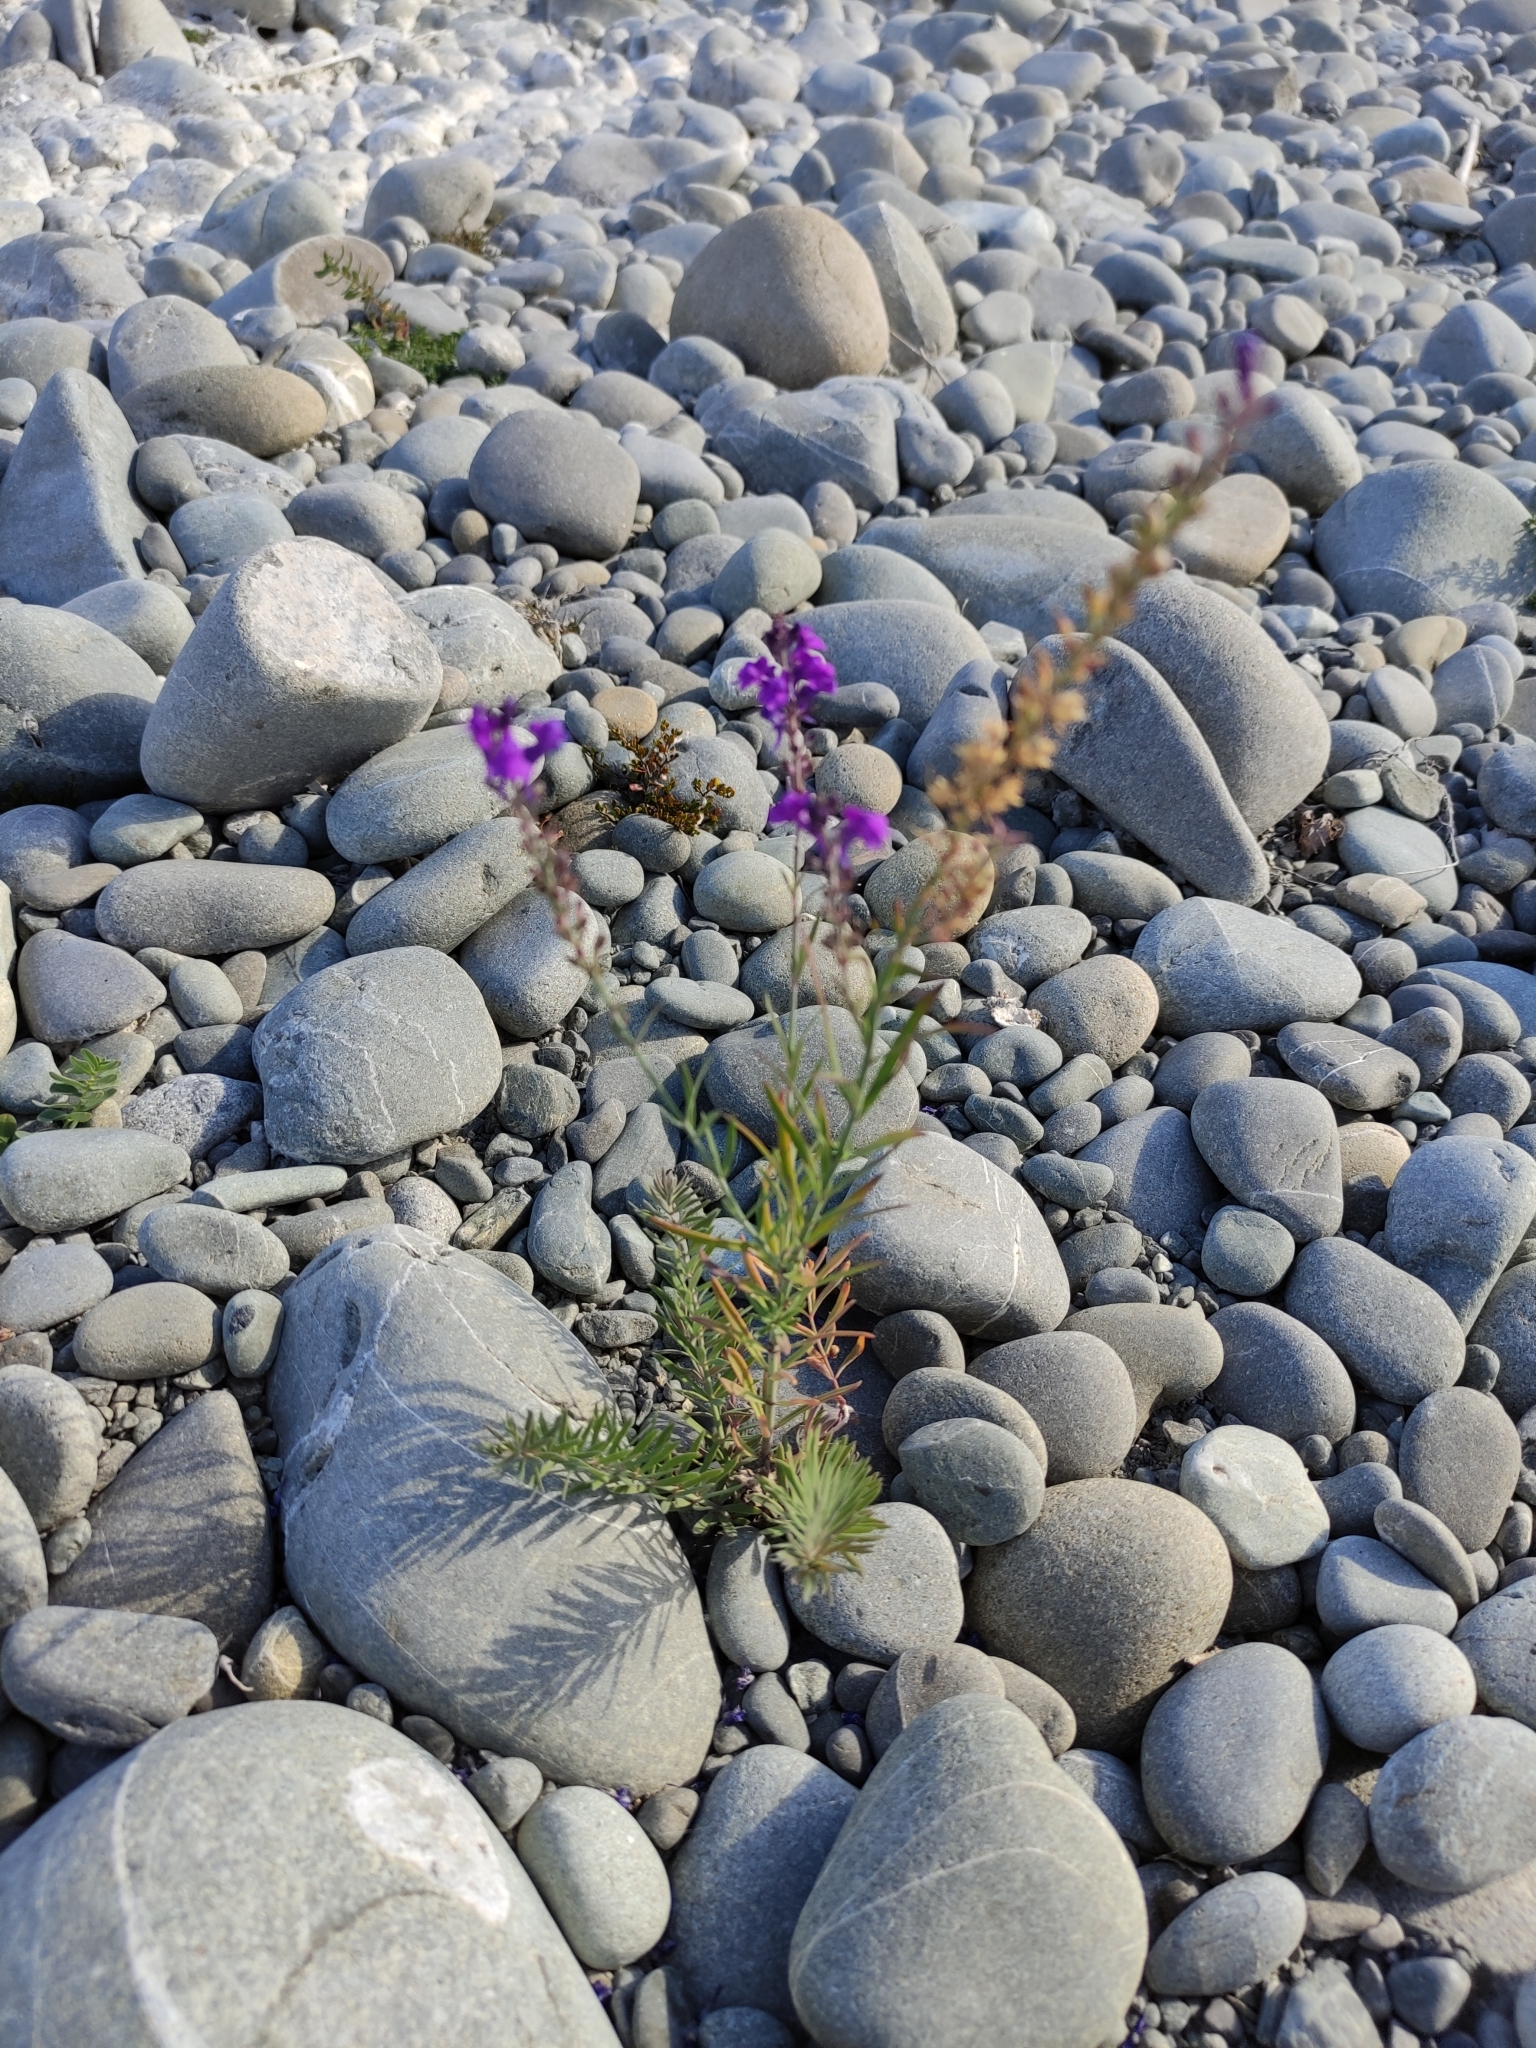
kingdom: Plantae
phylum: Tracheophyta
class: Magnoliopsida
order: Lamiales
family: Plantaginaceae
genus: Linaria
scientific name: Linaria purpurea
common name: Purple toadflax
